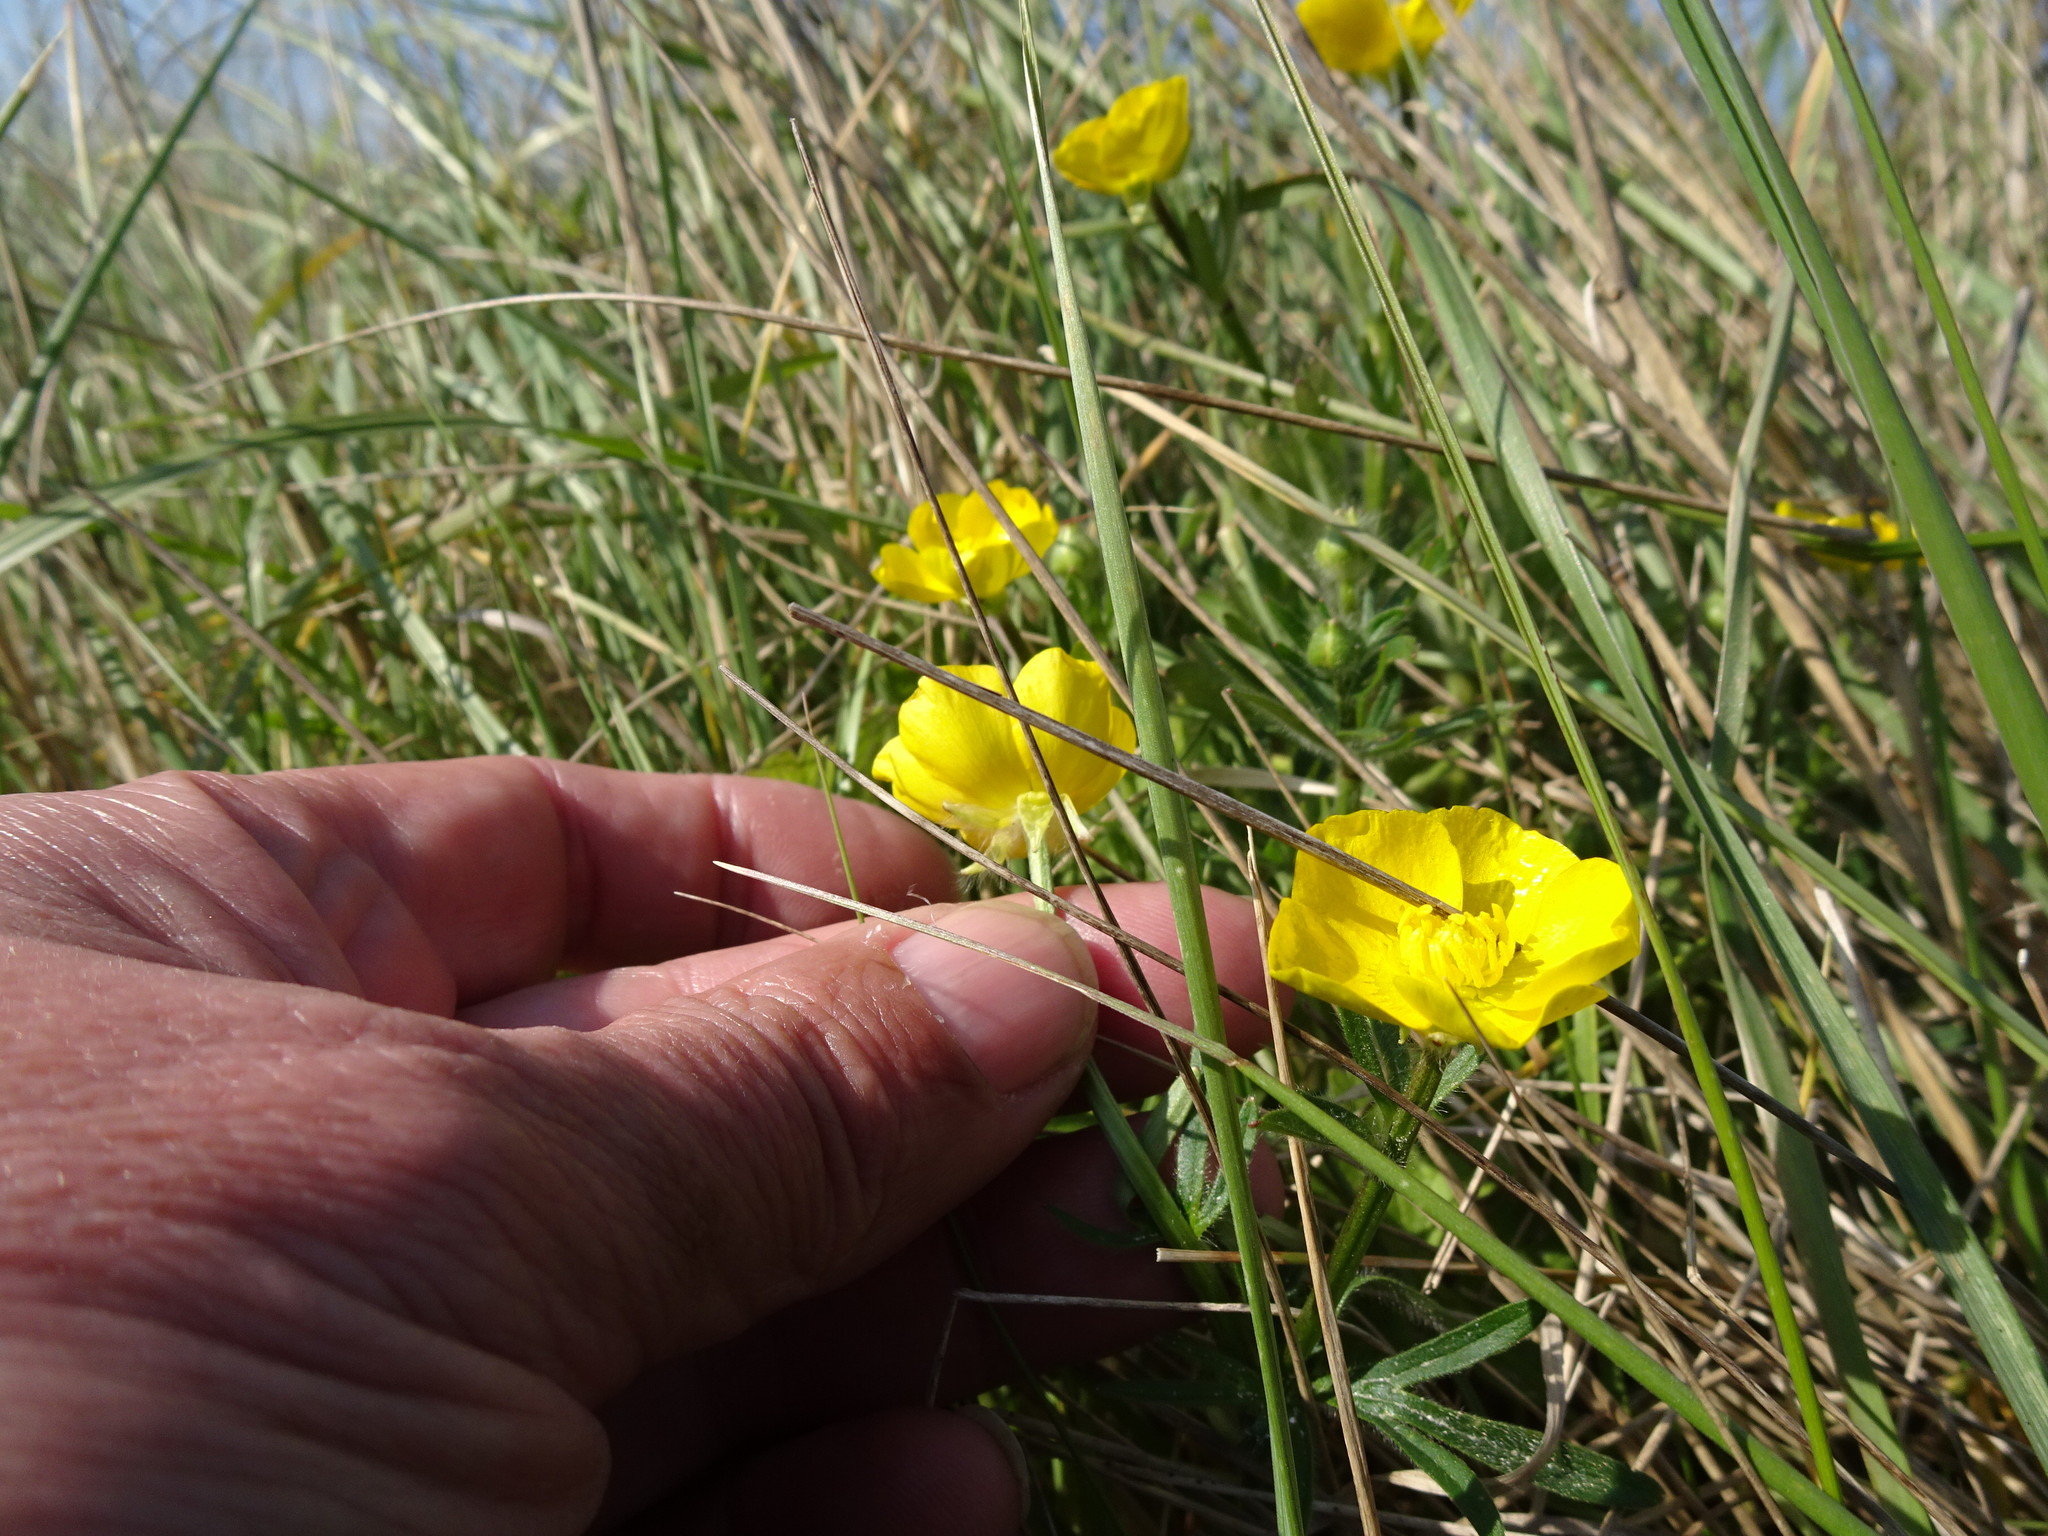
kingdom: Plantae
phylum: Tracheophyta
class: Magnoliopsida
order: Ranunculales
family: Ranunculaceae
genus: Ranunculus
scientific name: Ranunculus bulbosus
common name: Bulbous buttercup
